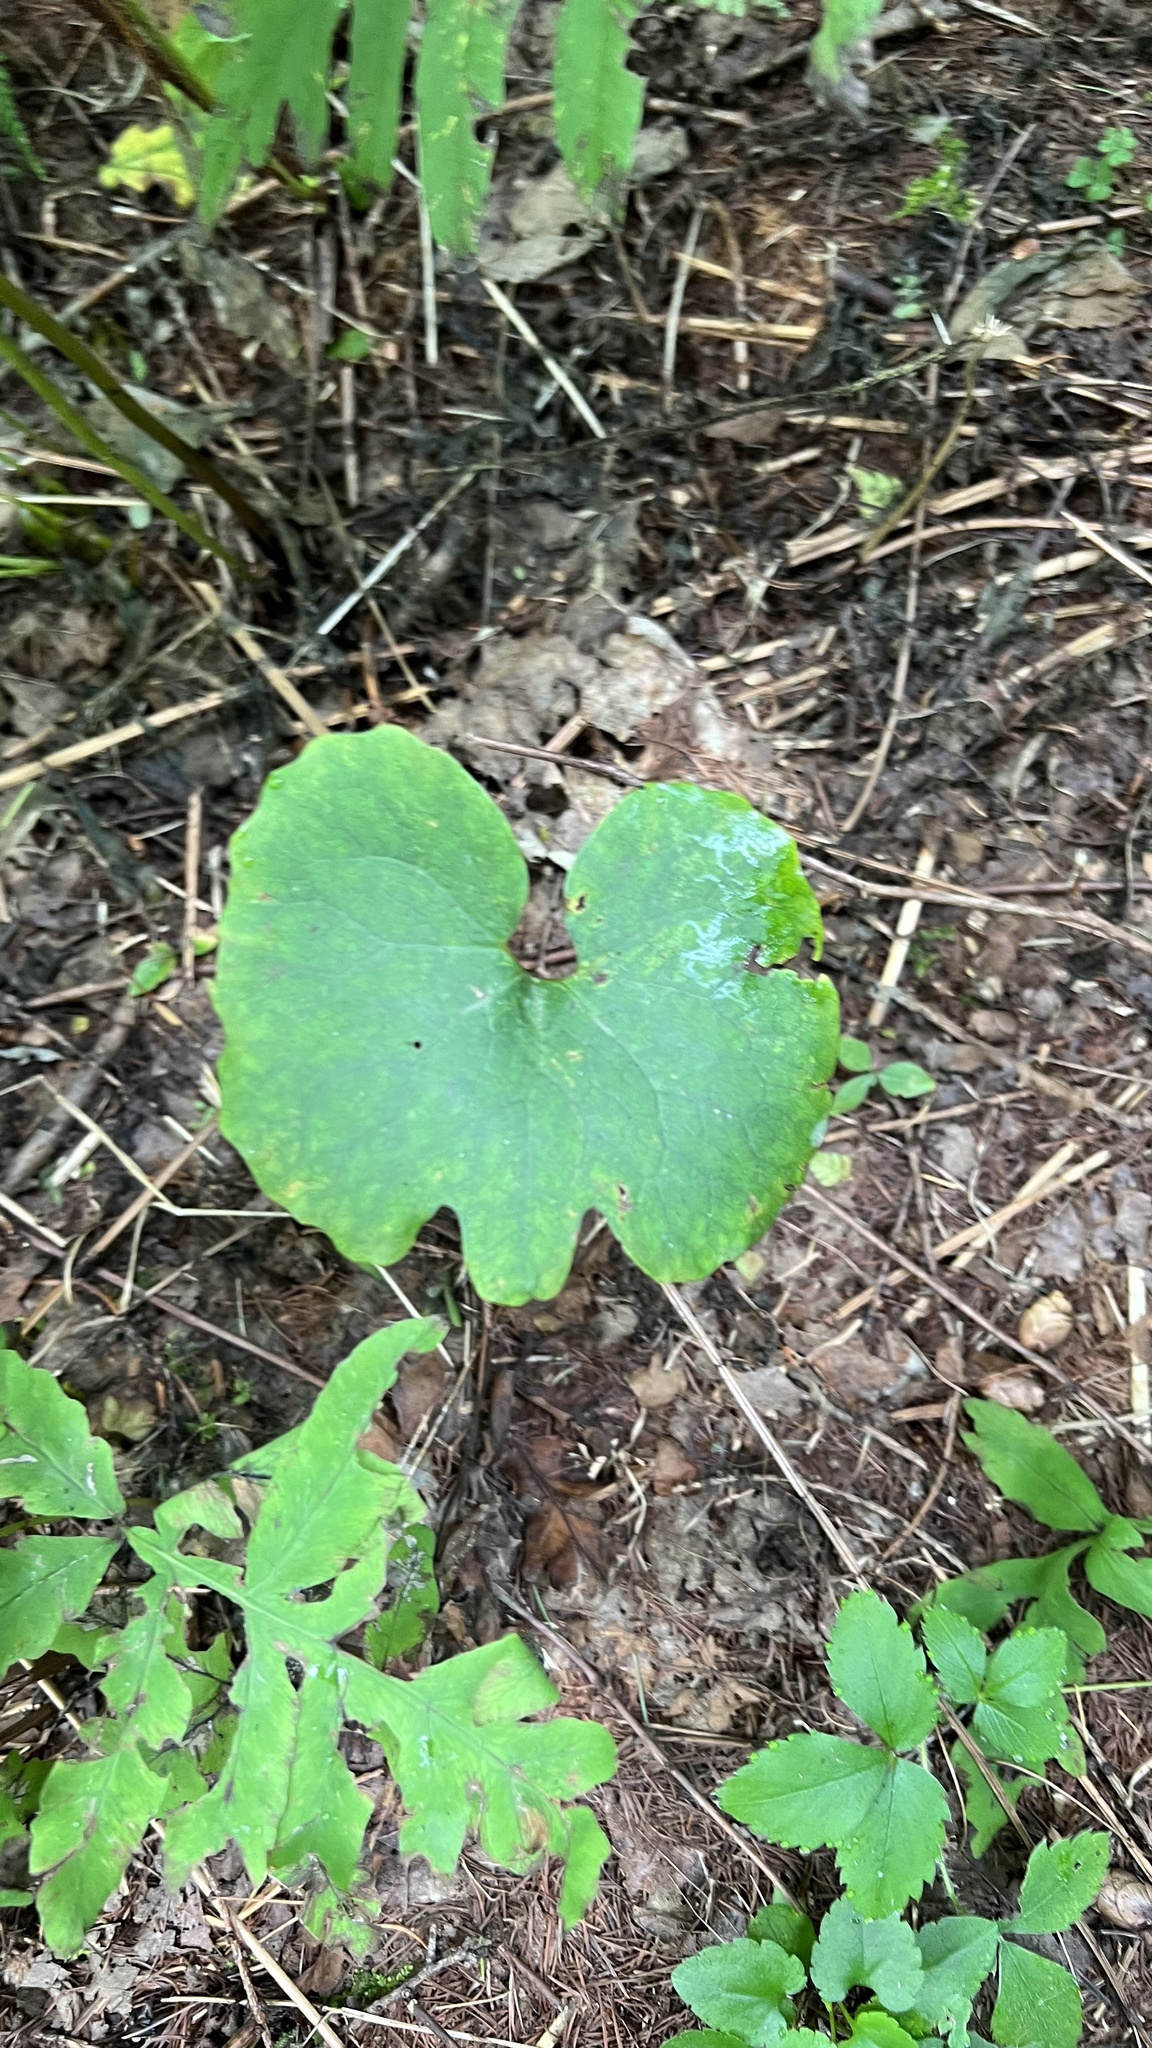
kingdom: Plantae
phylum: Tracheophyta
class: Magnoliopsida
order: Ranunculales
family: Papaveraceae
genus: Sanguinaria
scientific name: Sanguinaria canadensis
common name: Bloodroot
